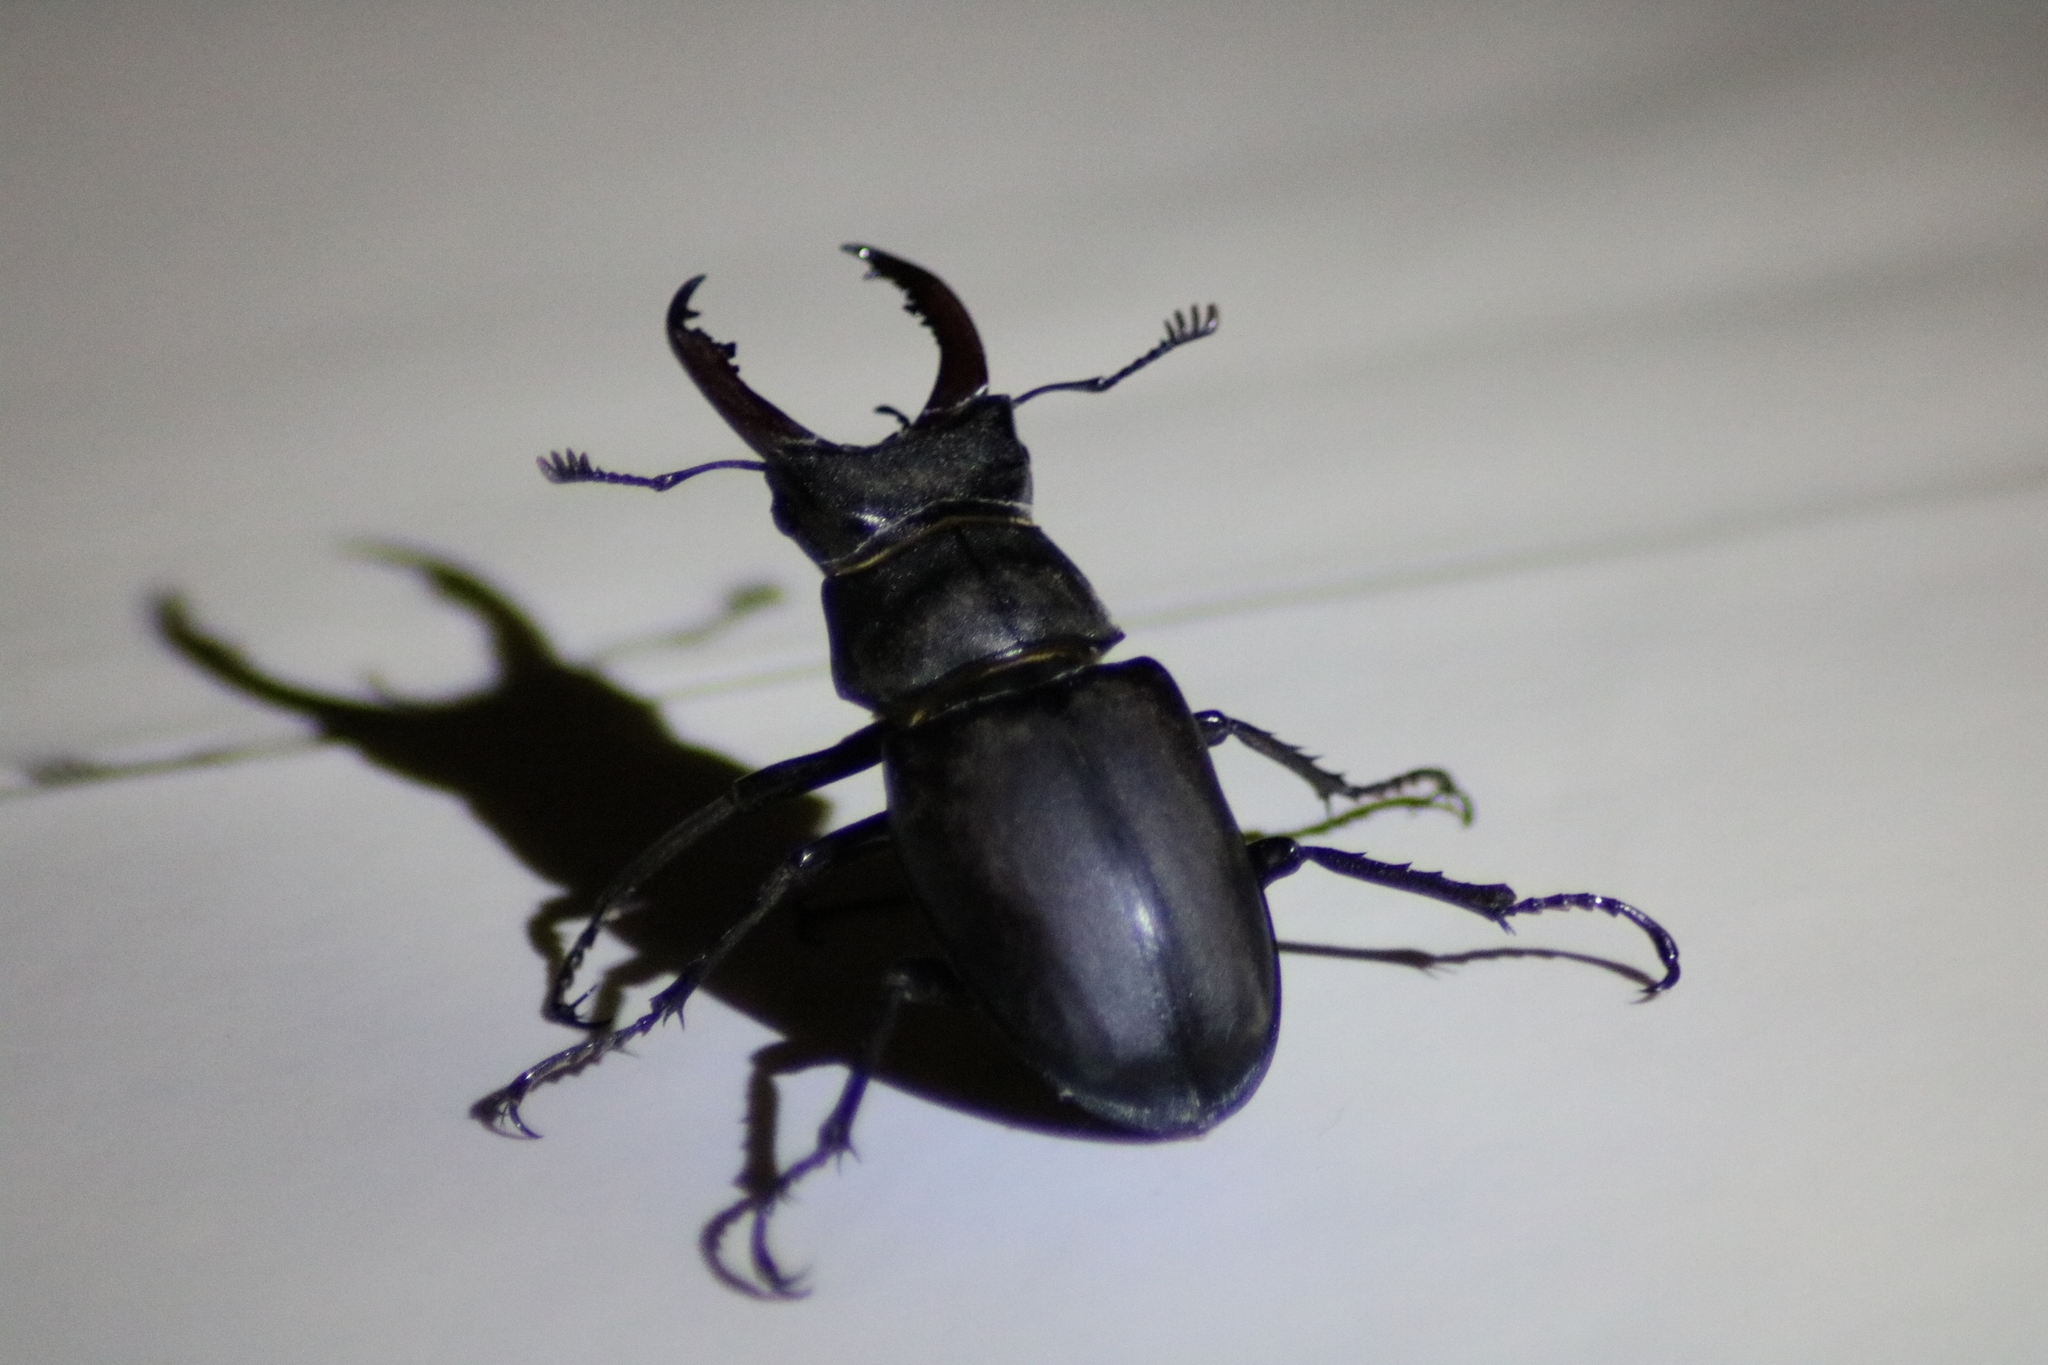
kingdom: Animalia
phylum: Arthropoda
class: Insecta
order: Coleoptera
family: Lucanidae
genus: Lucanus
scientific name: Lucanus cervus
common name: Stag beetle
